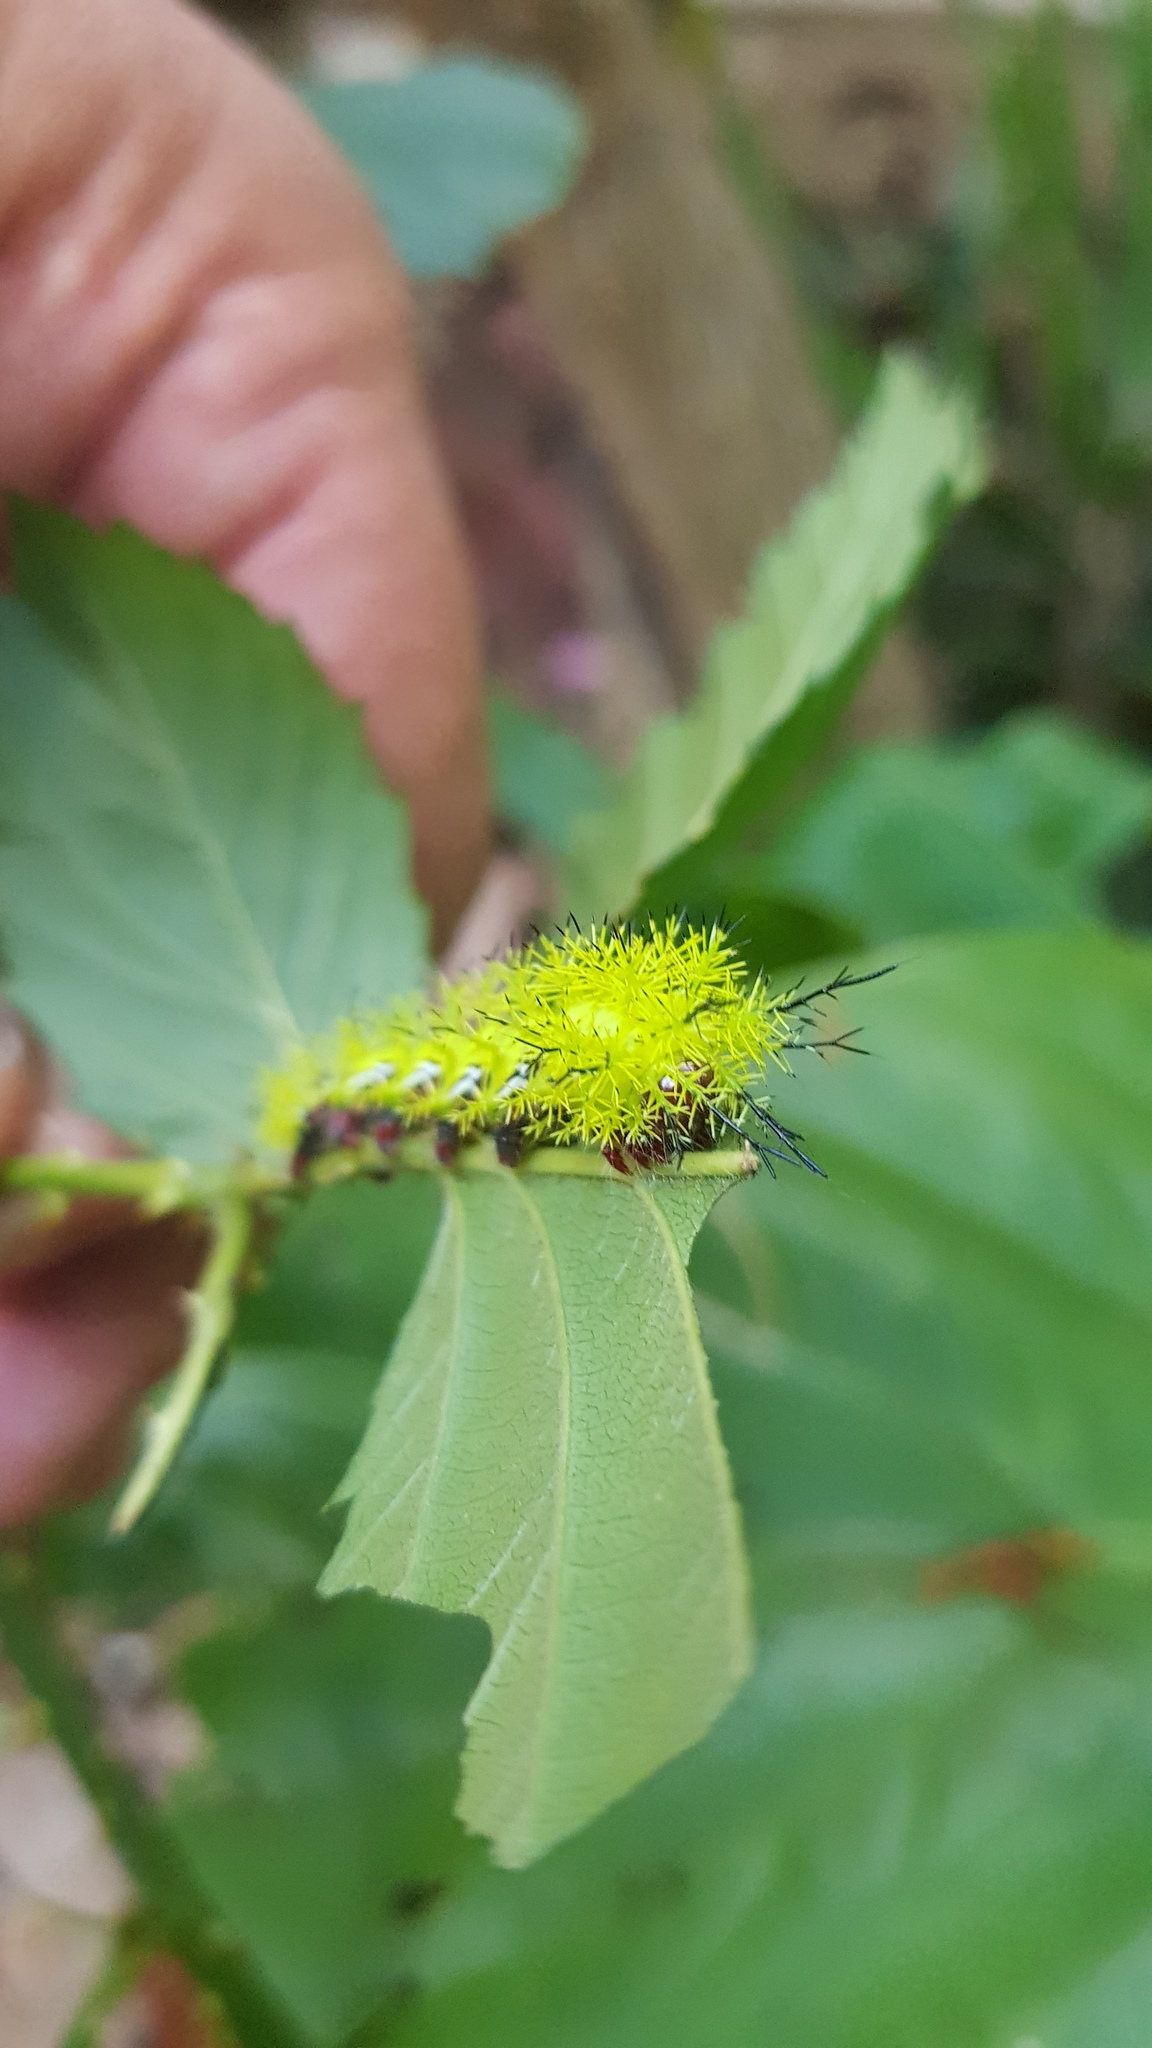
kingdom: Animalia
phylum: Arthropoda
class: Insecta
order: Lepidoptera
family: Saturniidae
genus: Automeris
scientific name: Automeris io
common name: Io moth
